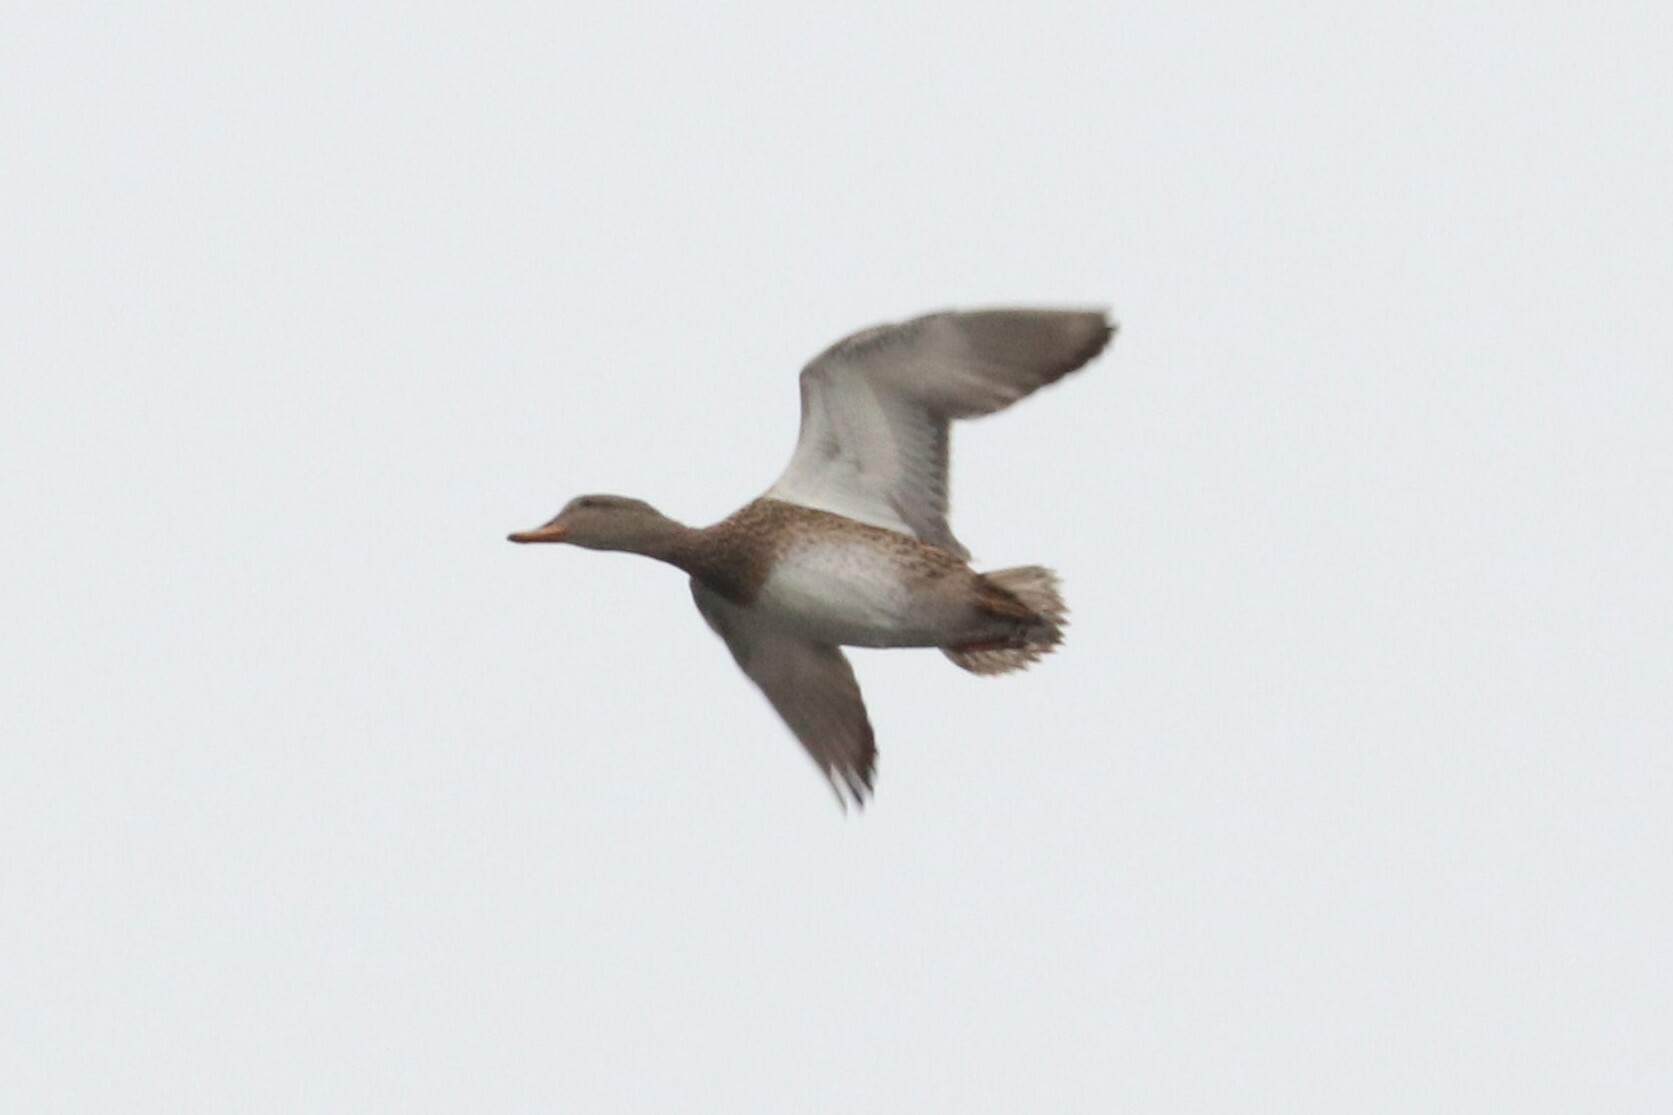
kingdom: Animalia
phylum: Chordata
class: Aves
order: Anseriformes
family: Anatidae
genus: Mareca
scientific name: Mareca strepera
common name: Gadwall
